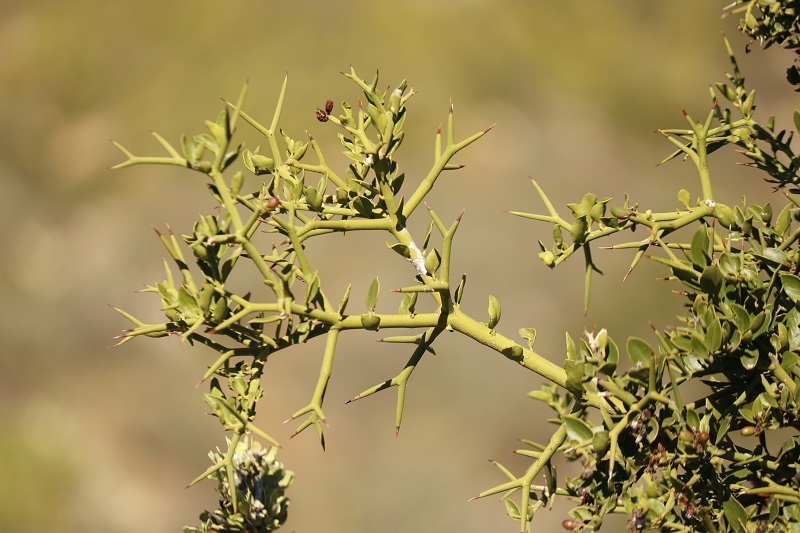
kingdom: Plantae
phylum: Tracheophyta
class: Magnoliopsida
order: Gentianales
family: Apocynaceae
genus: Carissa
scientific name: Carissa haematocarpa
